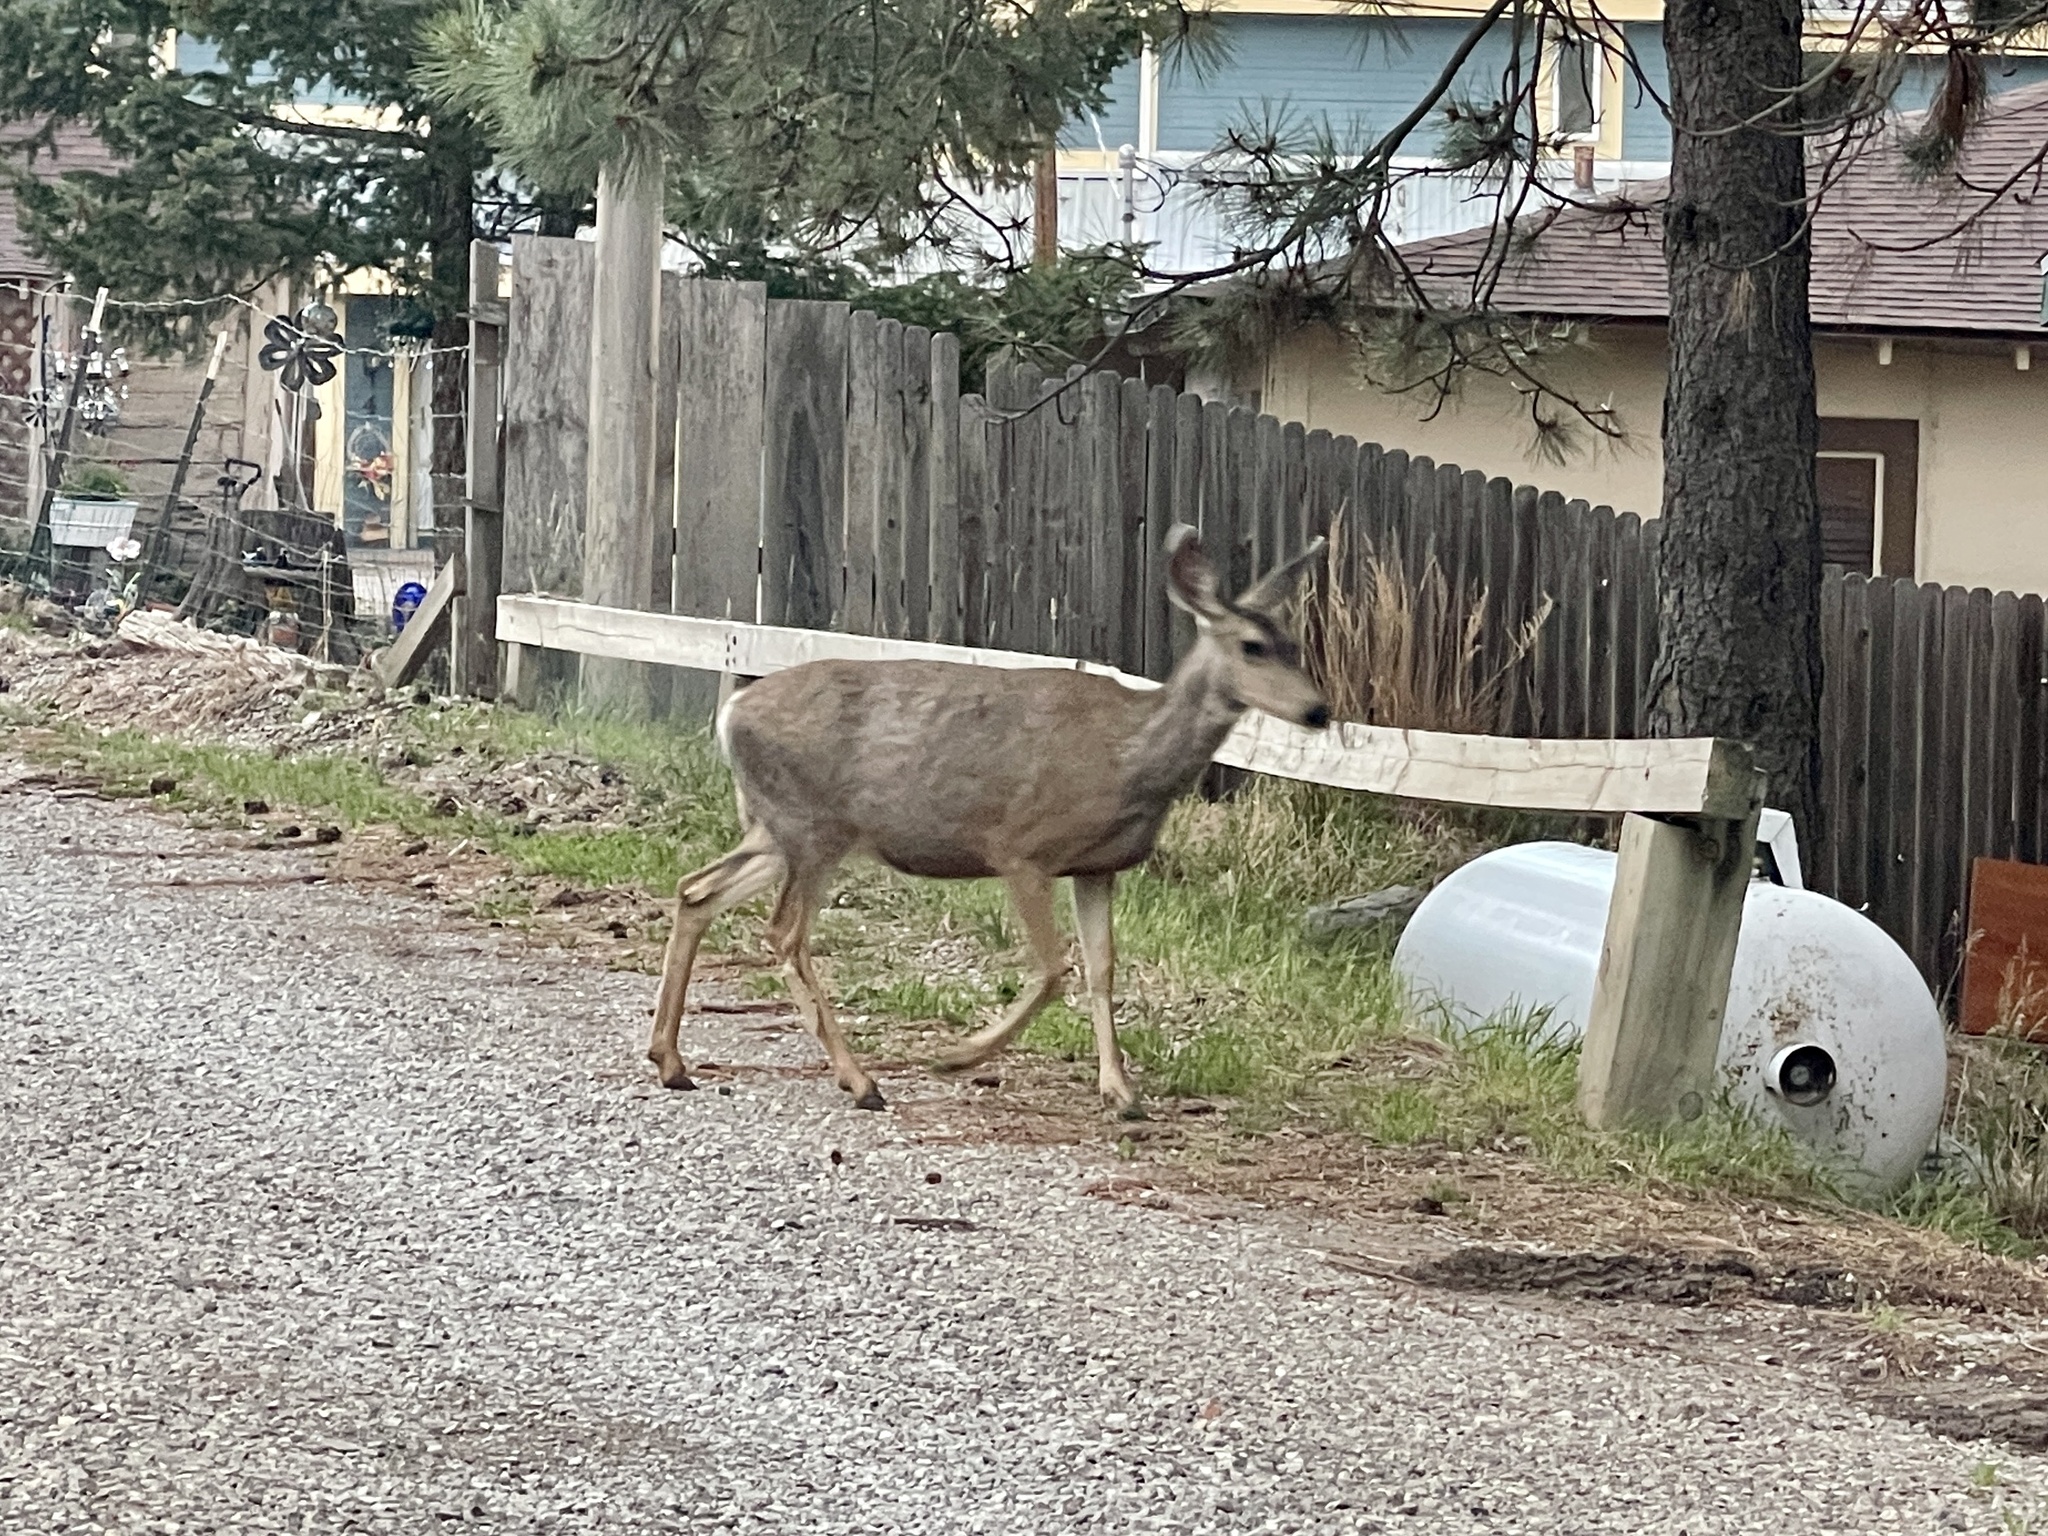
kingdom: Animalia
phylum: Chordata
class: Mammalia
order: Artiodactyla
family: Cervidae
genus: Odocoileus
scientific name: Odocoileus hemionus
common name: Mule deer
